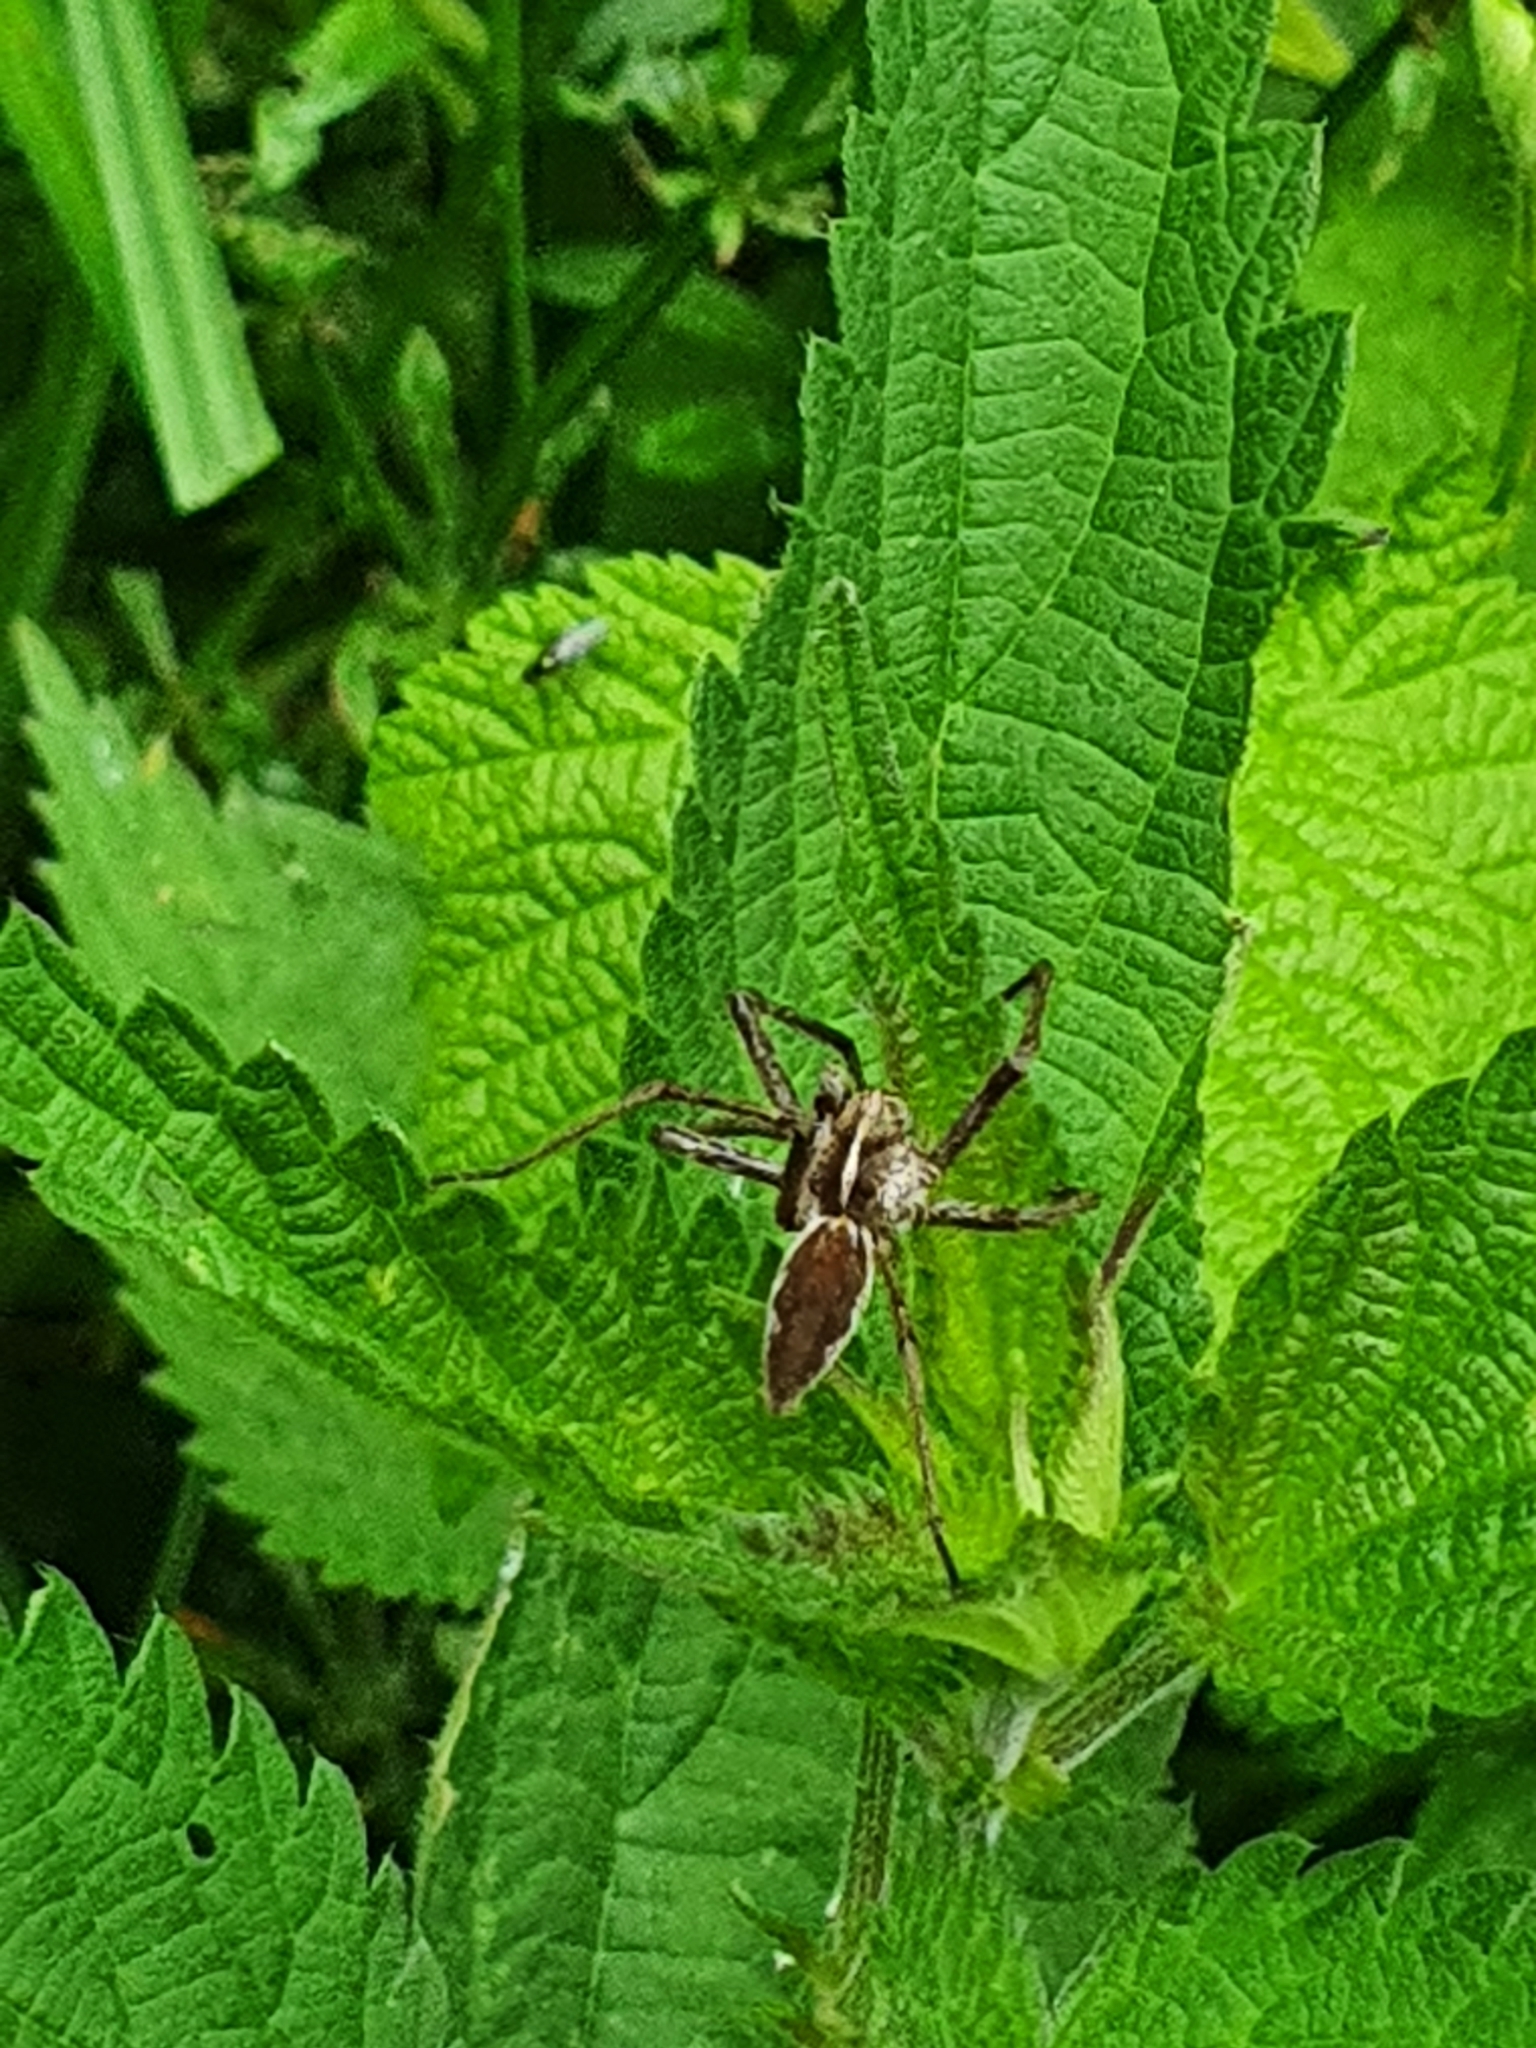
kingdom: Animalia
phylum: Arthropoda
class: Arachnida
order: Araneae
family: Pisauridae
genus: Pisaura
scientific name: Pisaura mirabilis
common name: Tent spider
